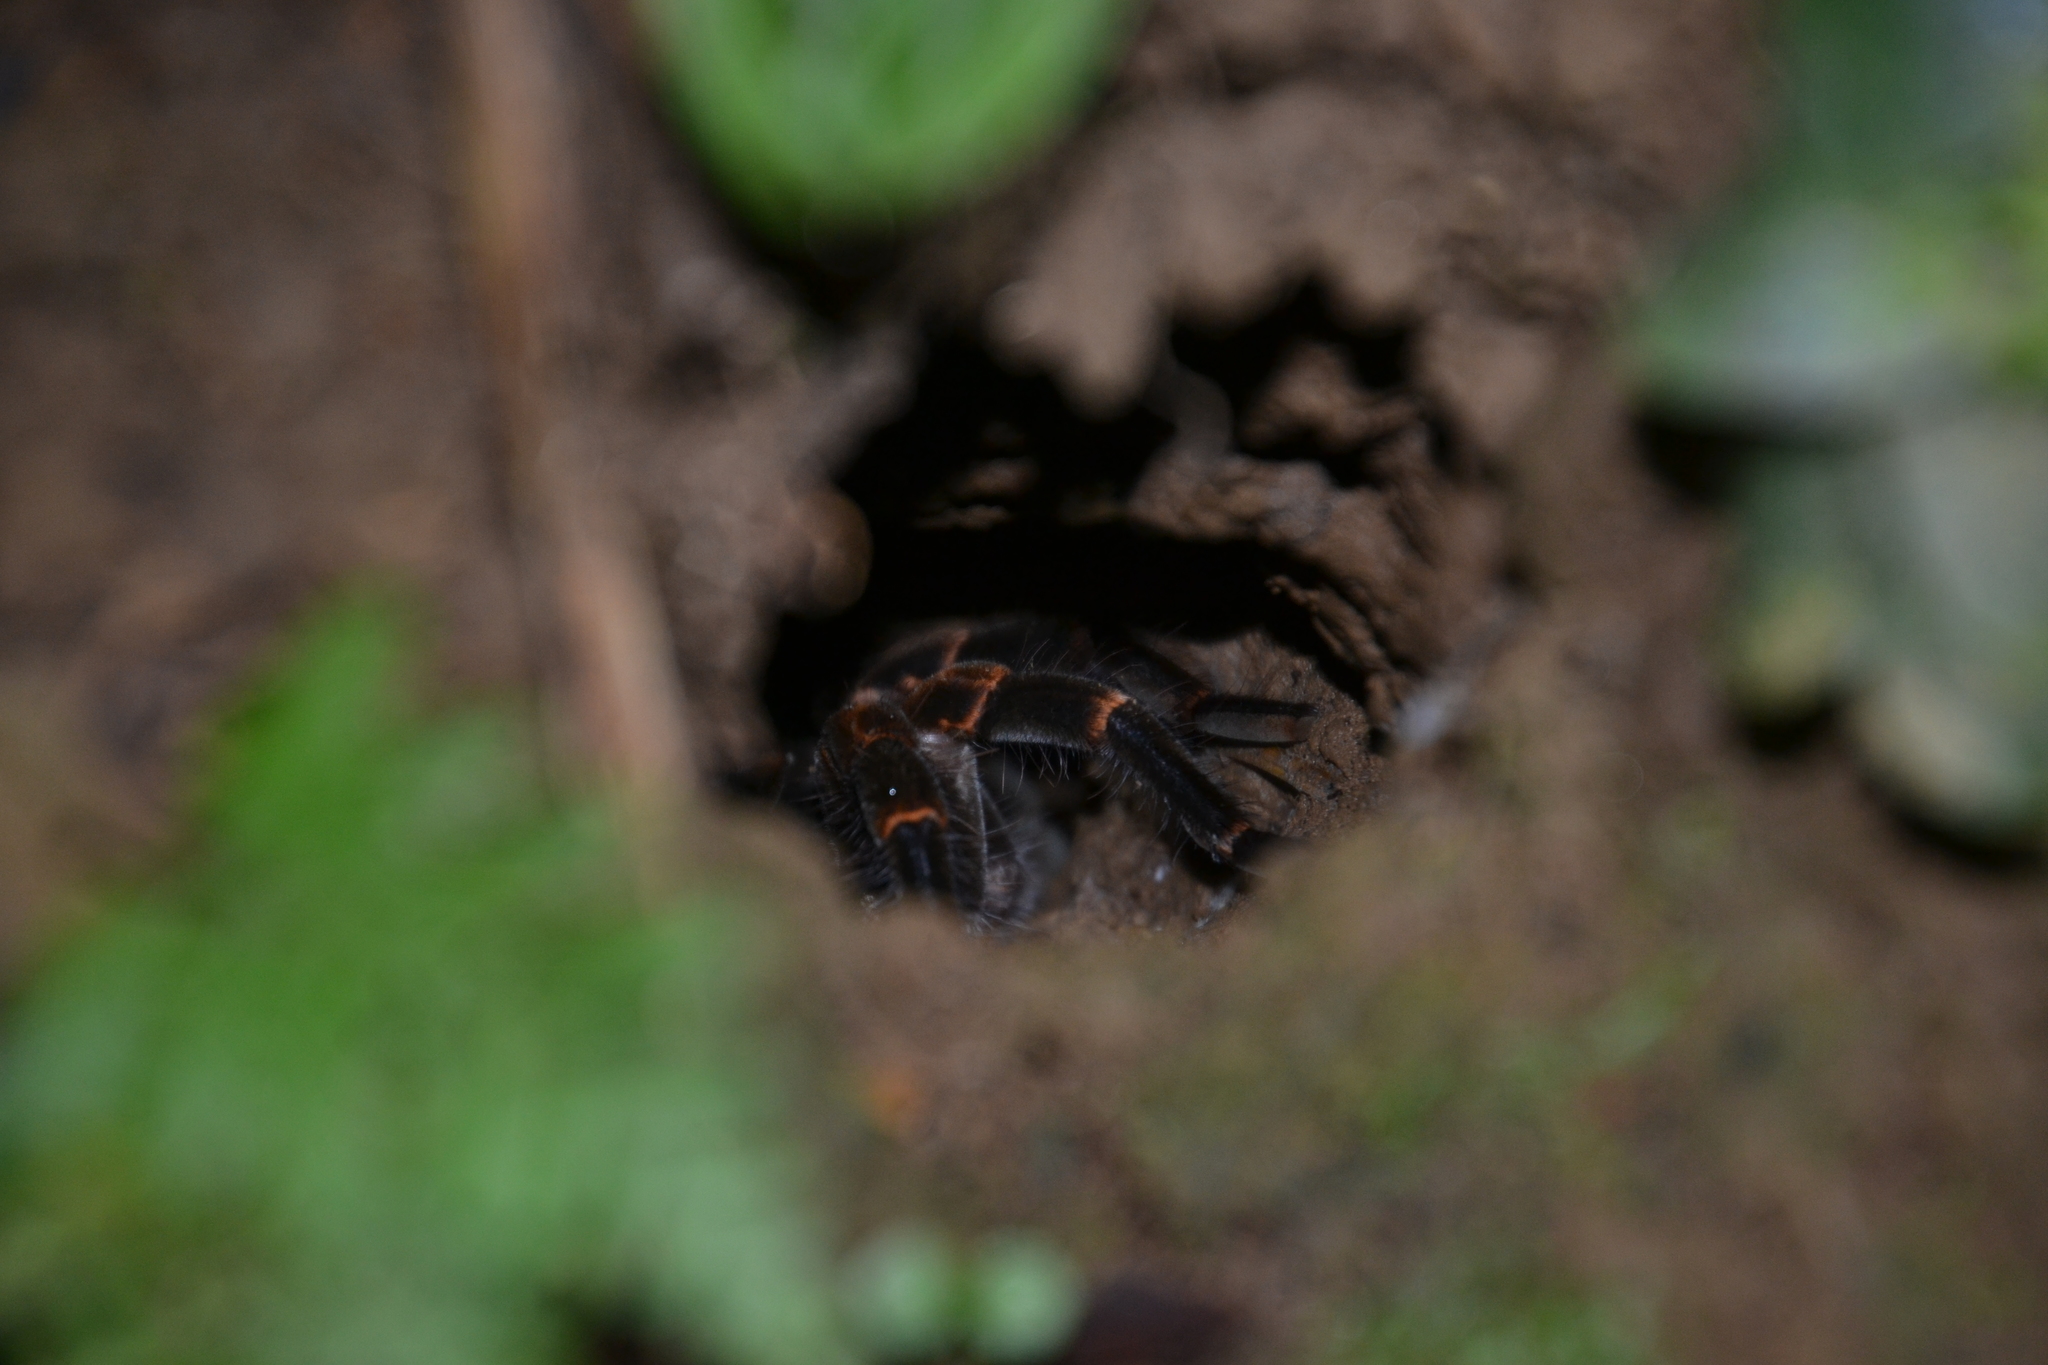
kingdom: Animalia
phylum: Arthropoda
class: Arachnida
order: Araneae
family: Theraphosidae
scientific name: Theraphosidae
